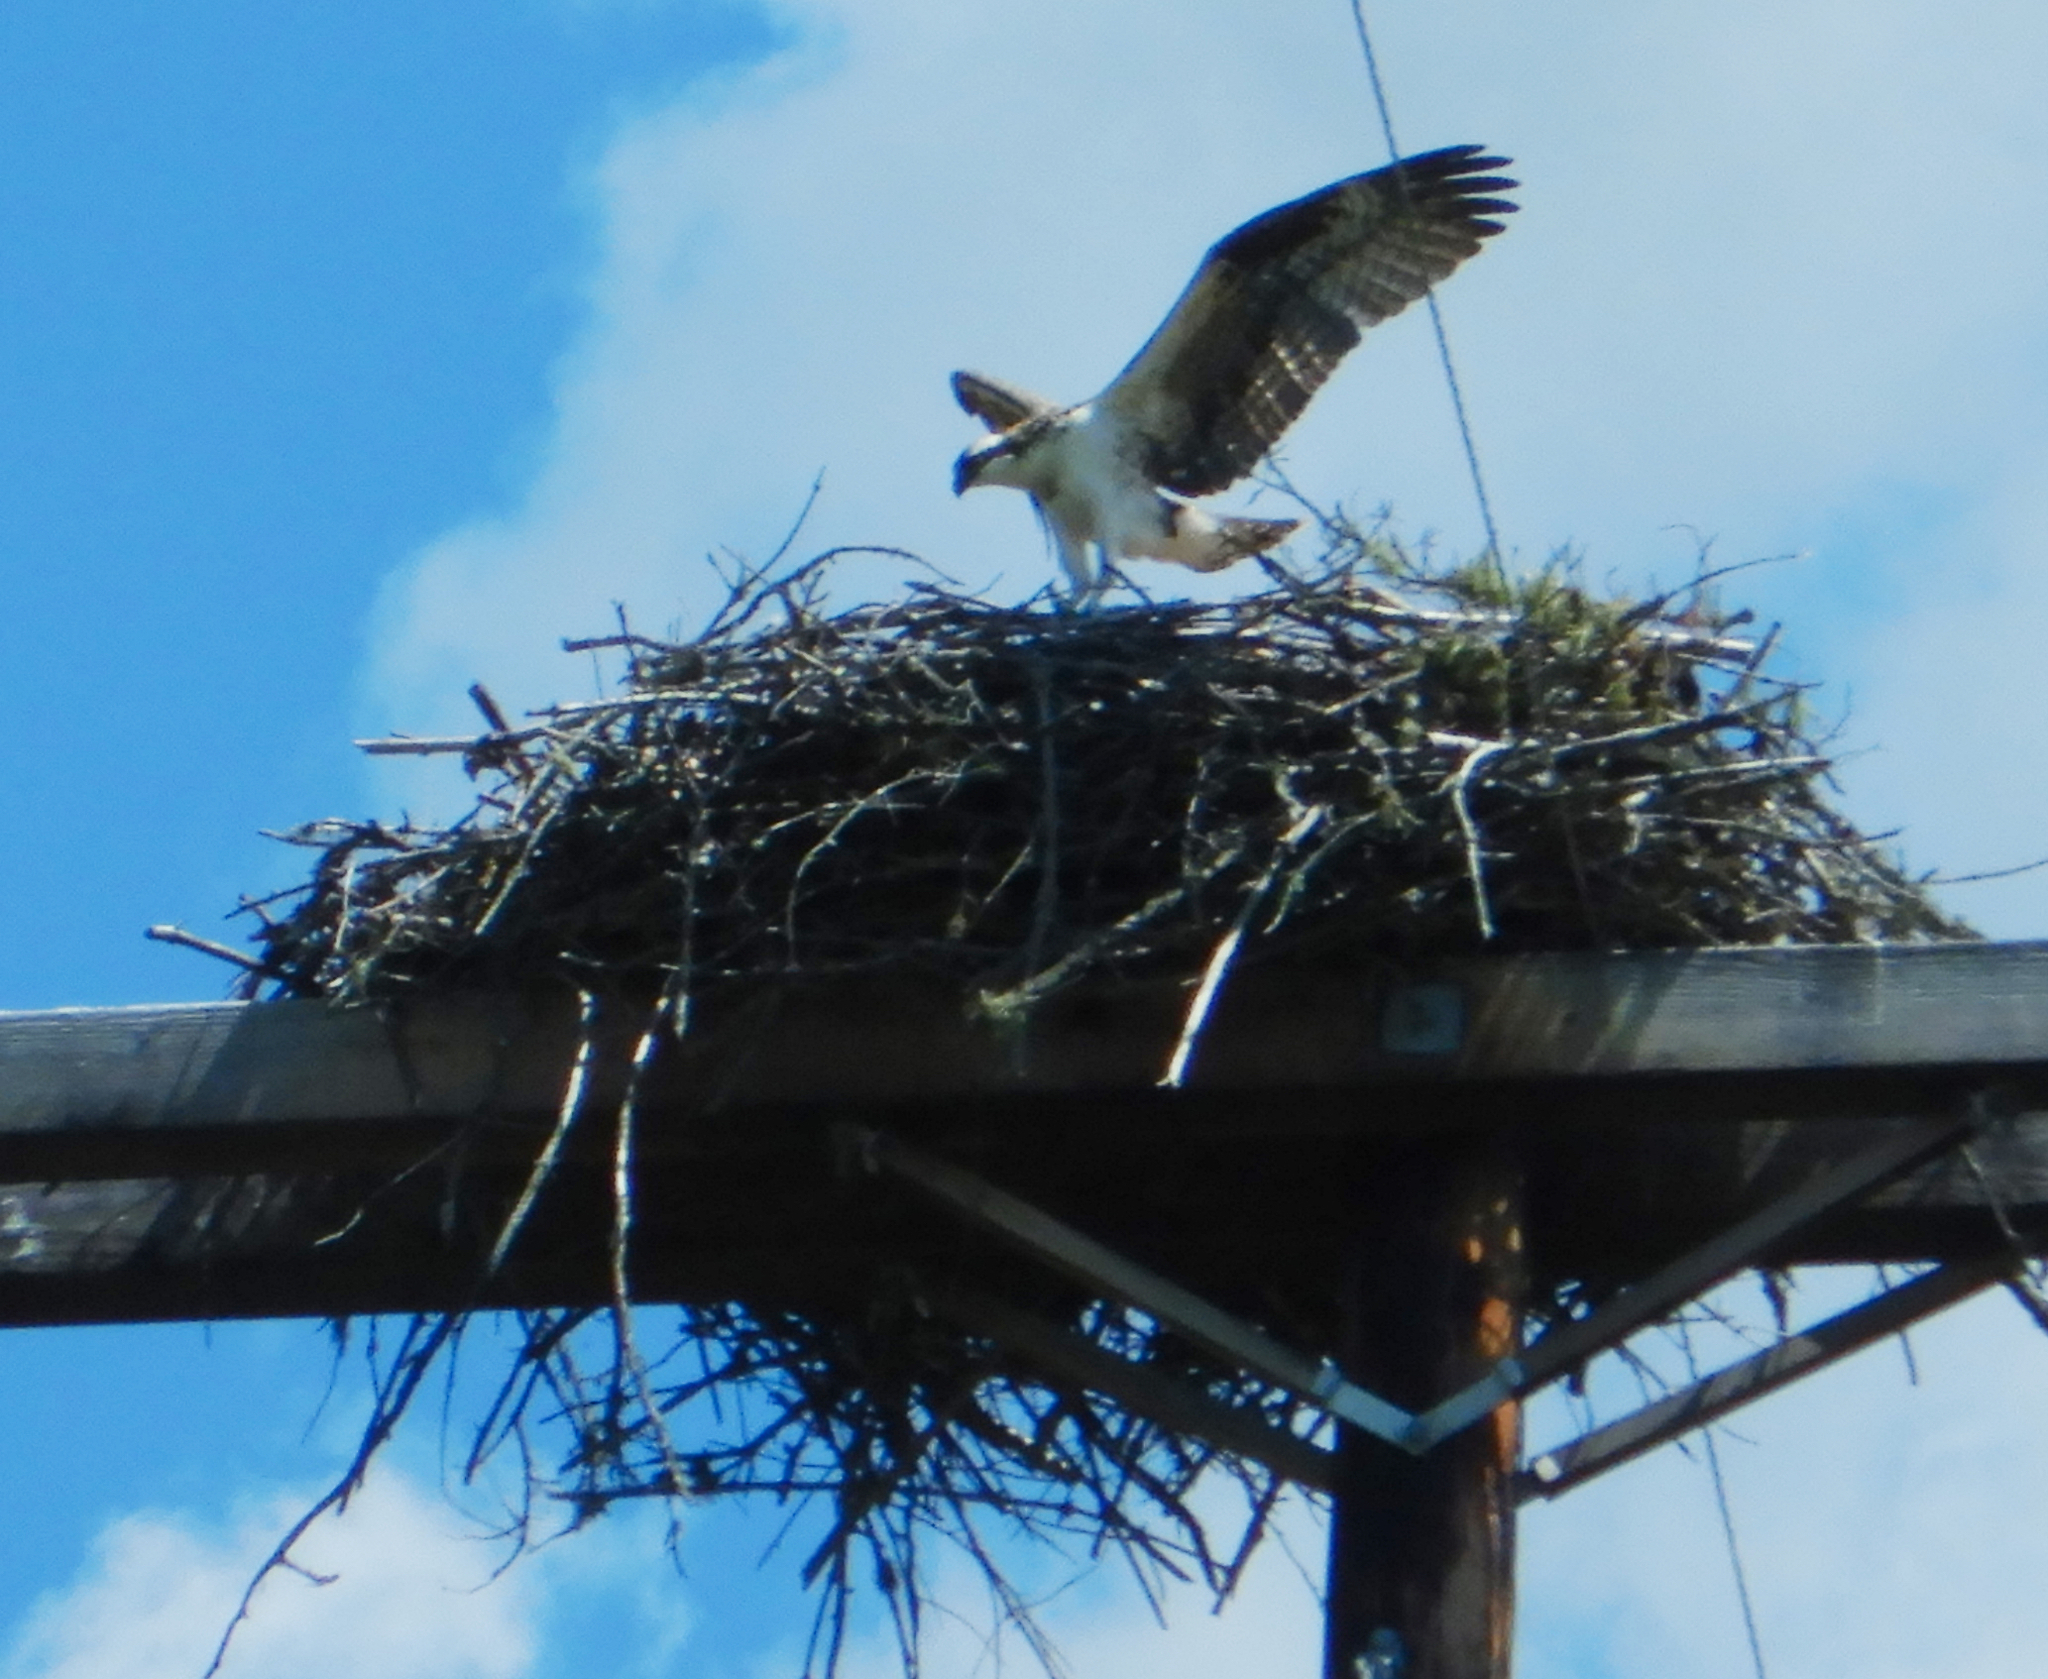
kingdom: Animalia
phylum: Chordata
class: Aves
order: Accipitriformes
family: Pandionidae
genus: Pandion
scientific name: Pandion haliaetus
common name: Osprey
